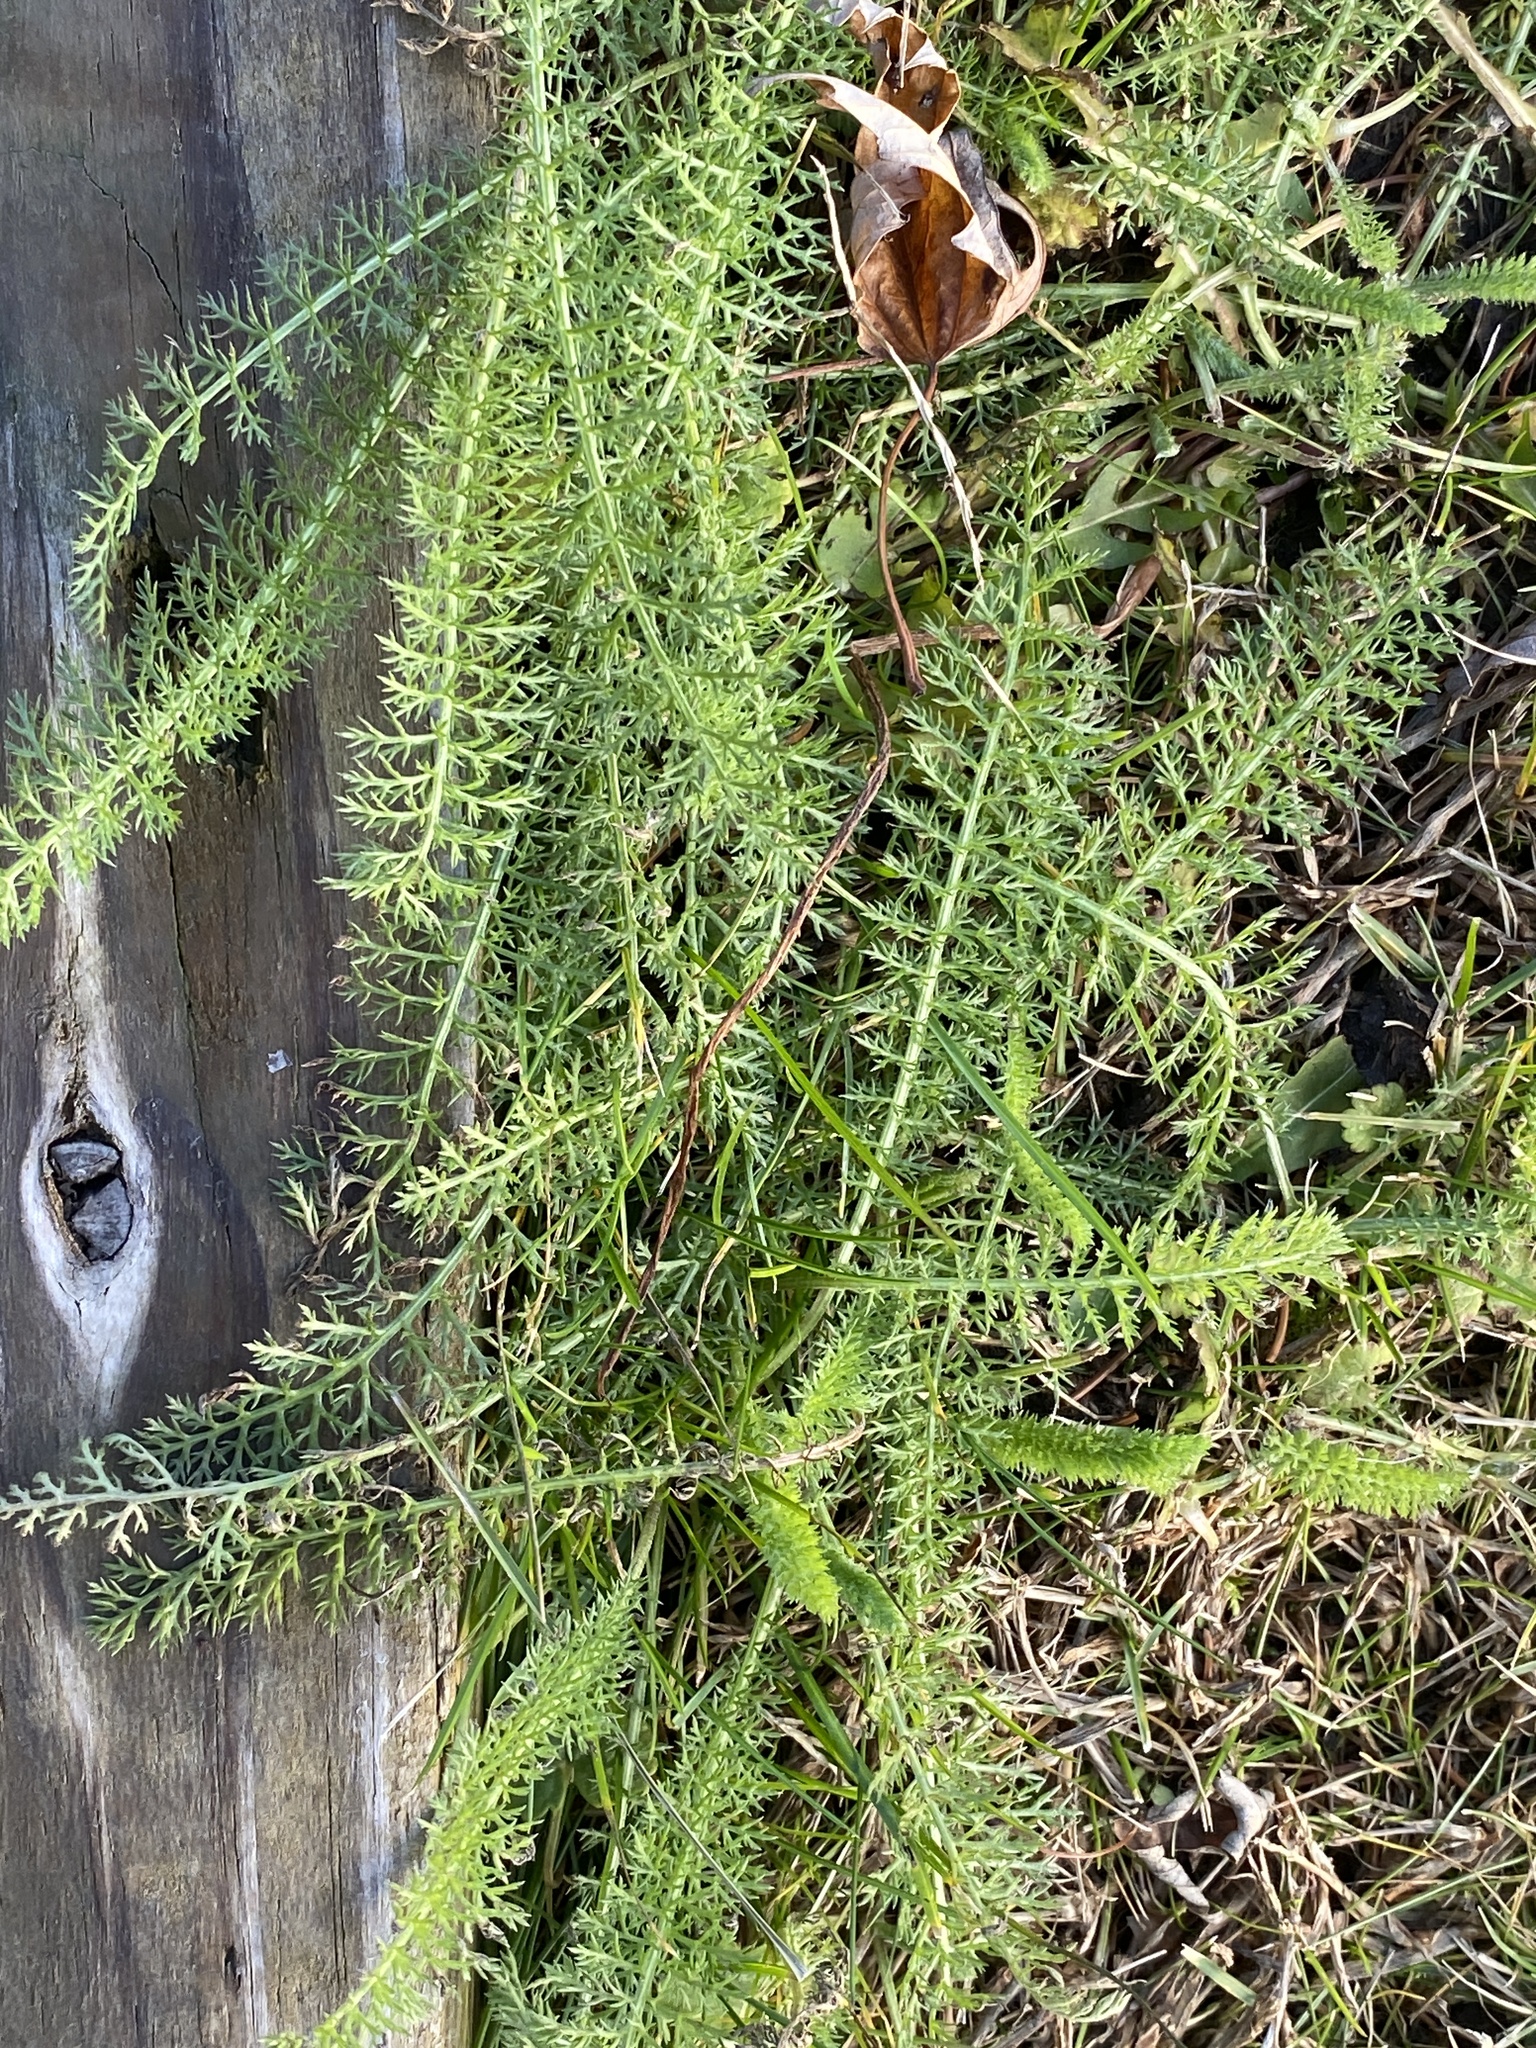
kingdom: Plantae
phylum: Tracheophyta
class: Magnoliopsida
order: Asterales
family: Asteraceae
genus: Achillea
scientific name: Achillea millefolium
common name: Yarrow
